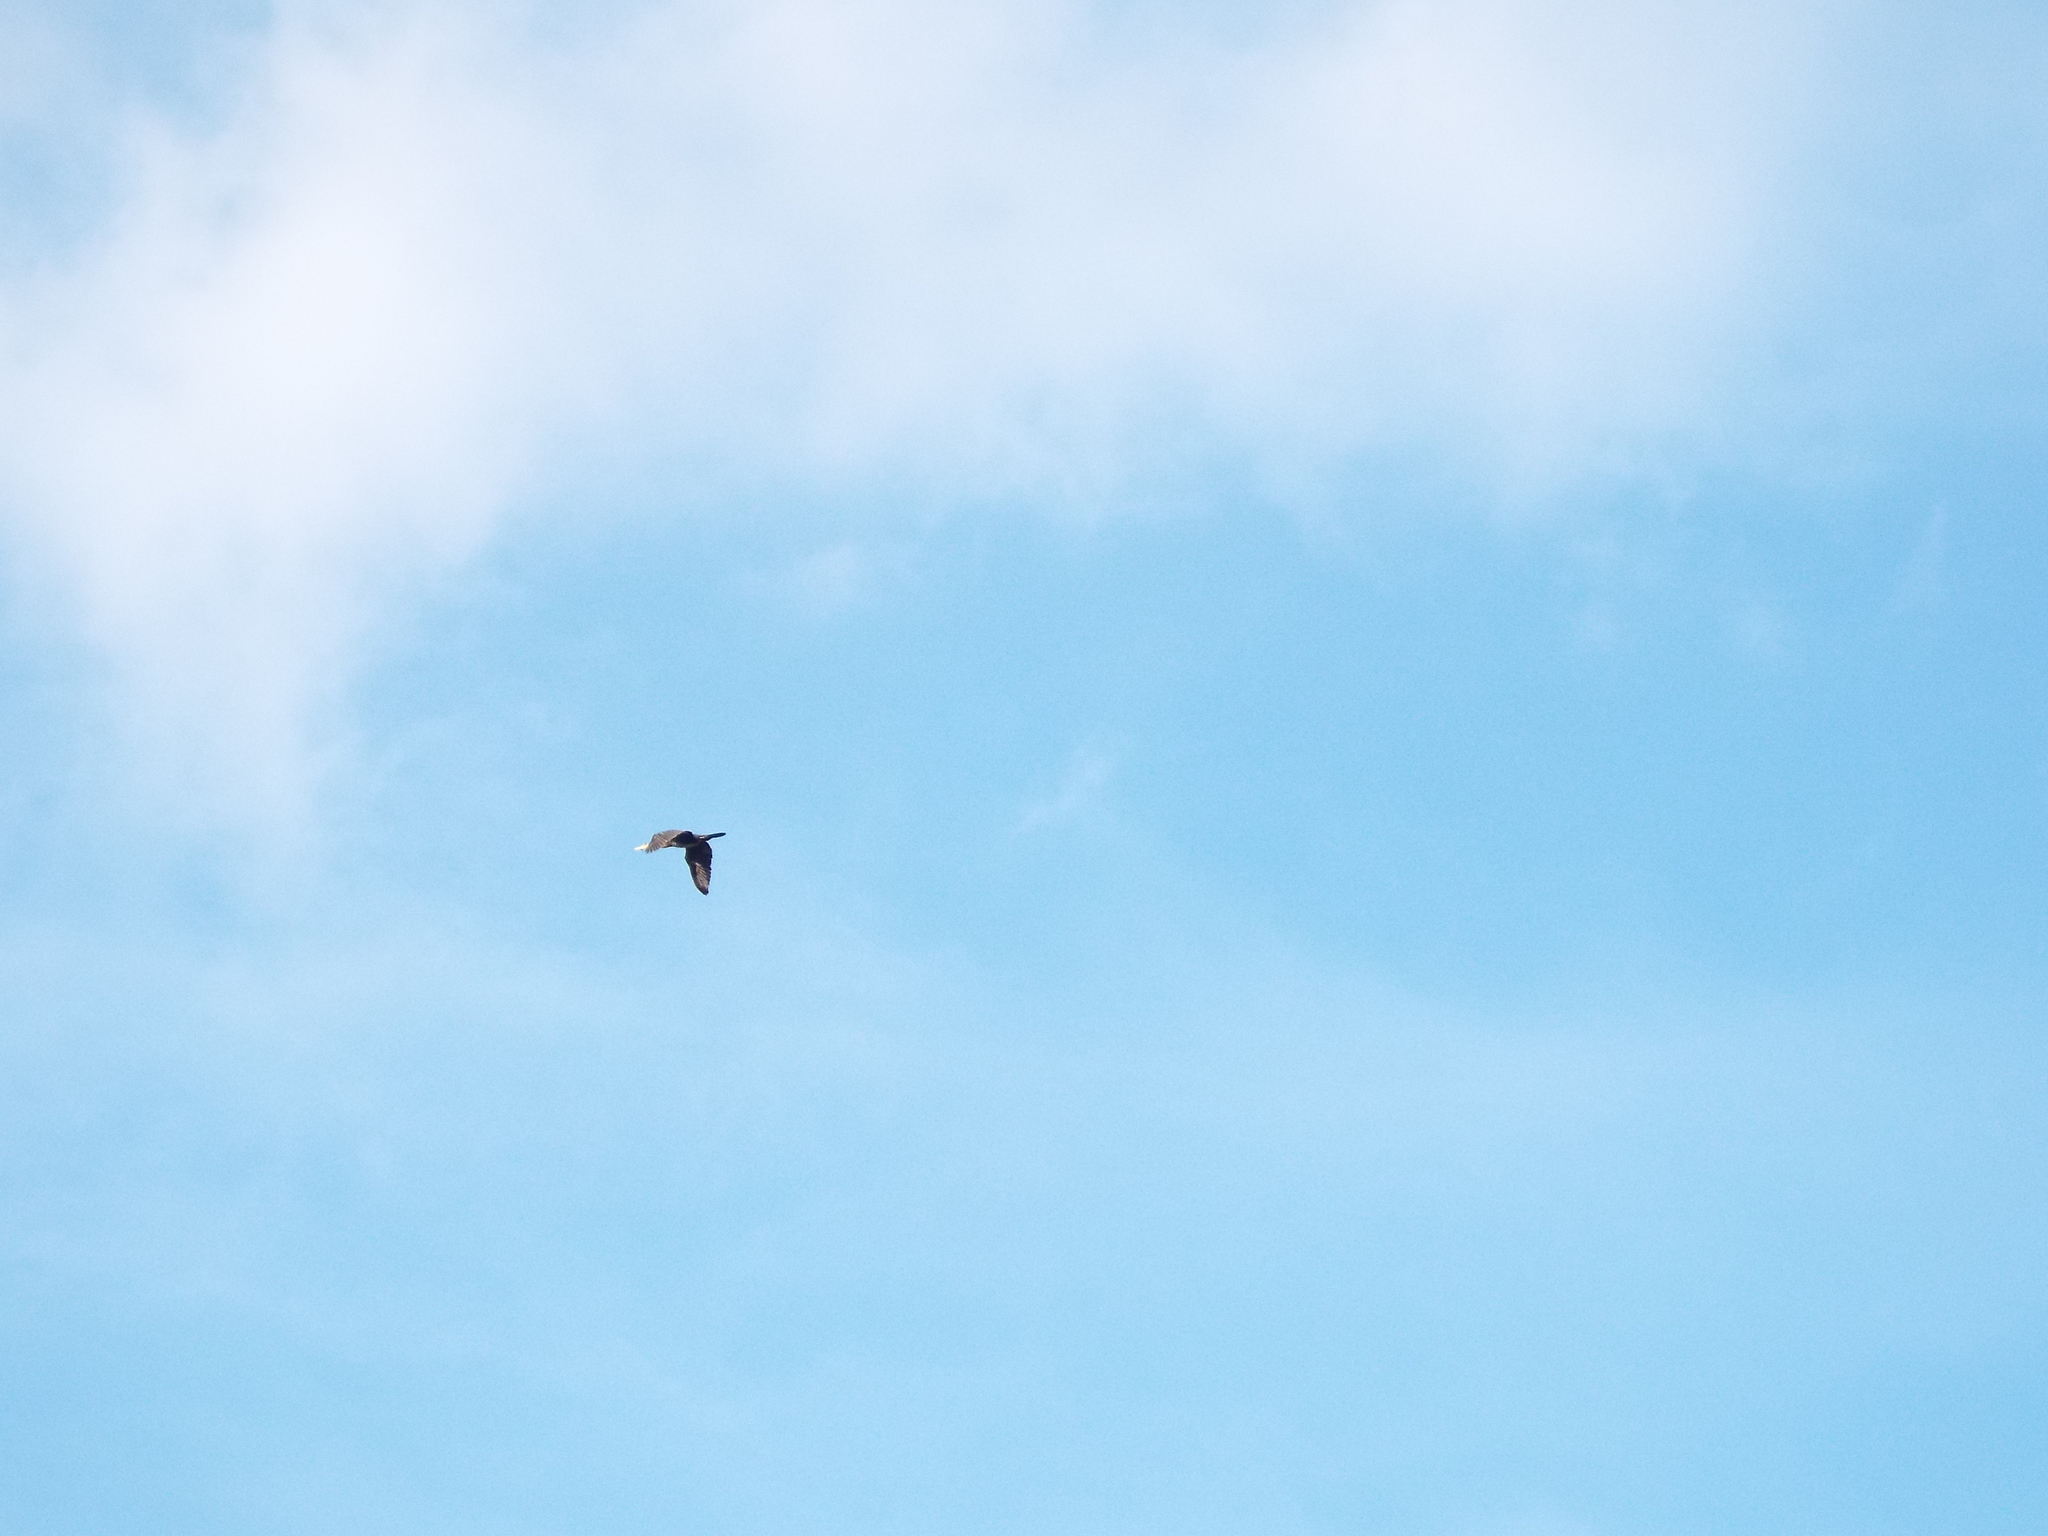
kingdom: Animalia
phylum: Chordata
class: Aves
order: Suliformes
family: Phalacrocoracidae
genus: Phalacrocorax
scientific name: Phalacrocorax carbo
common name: Great cormorant
